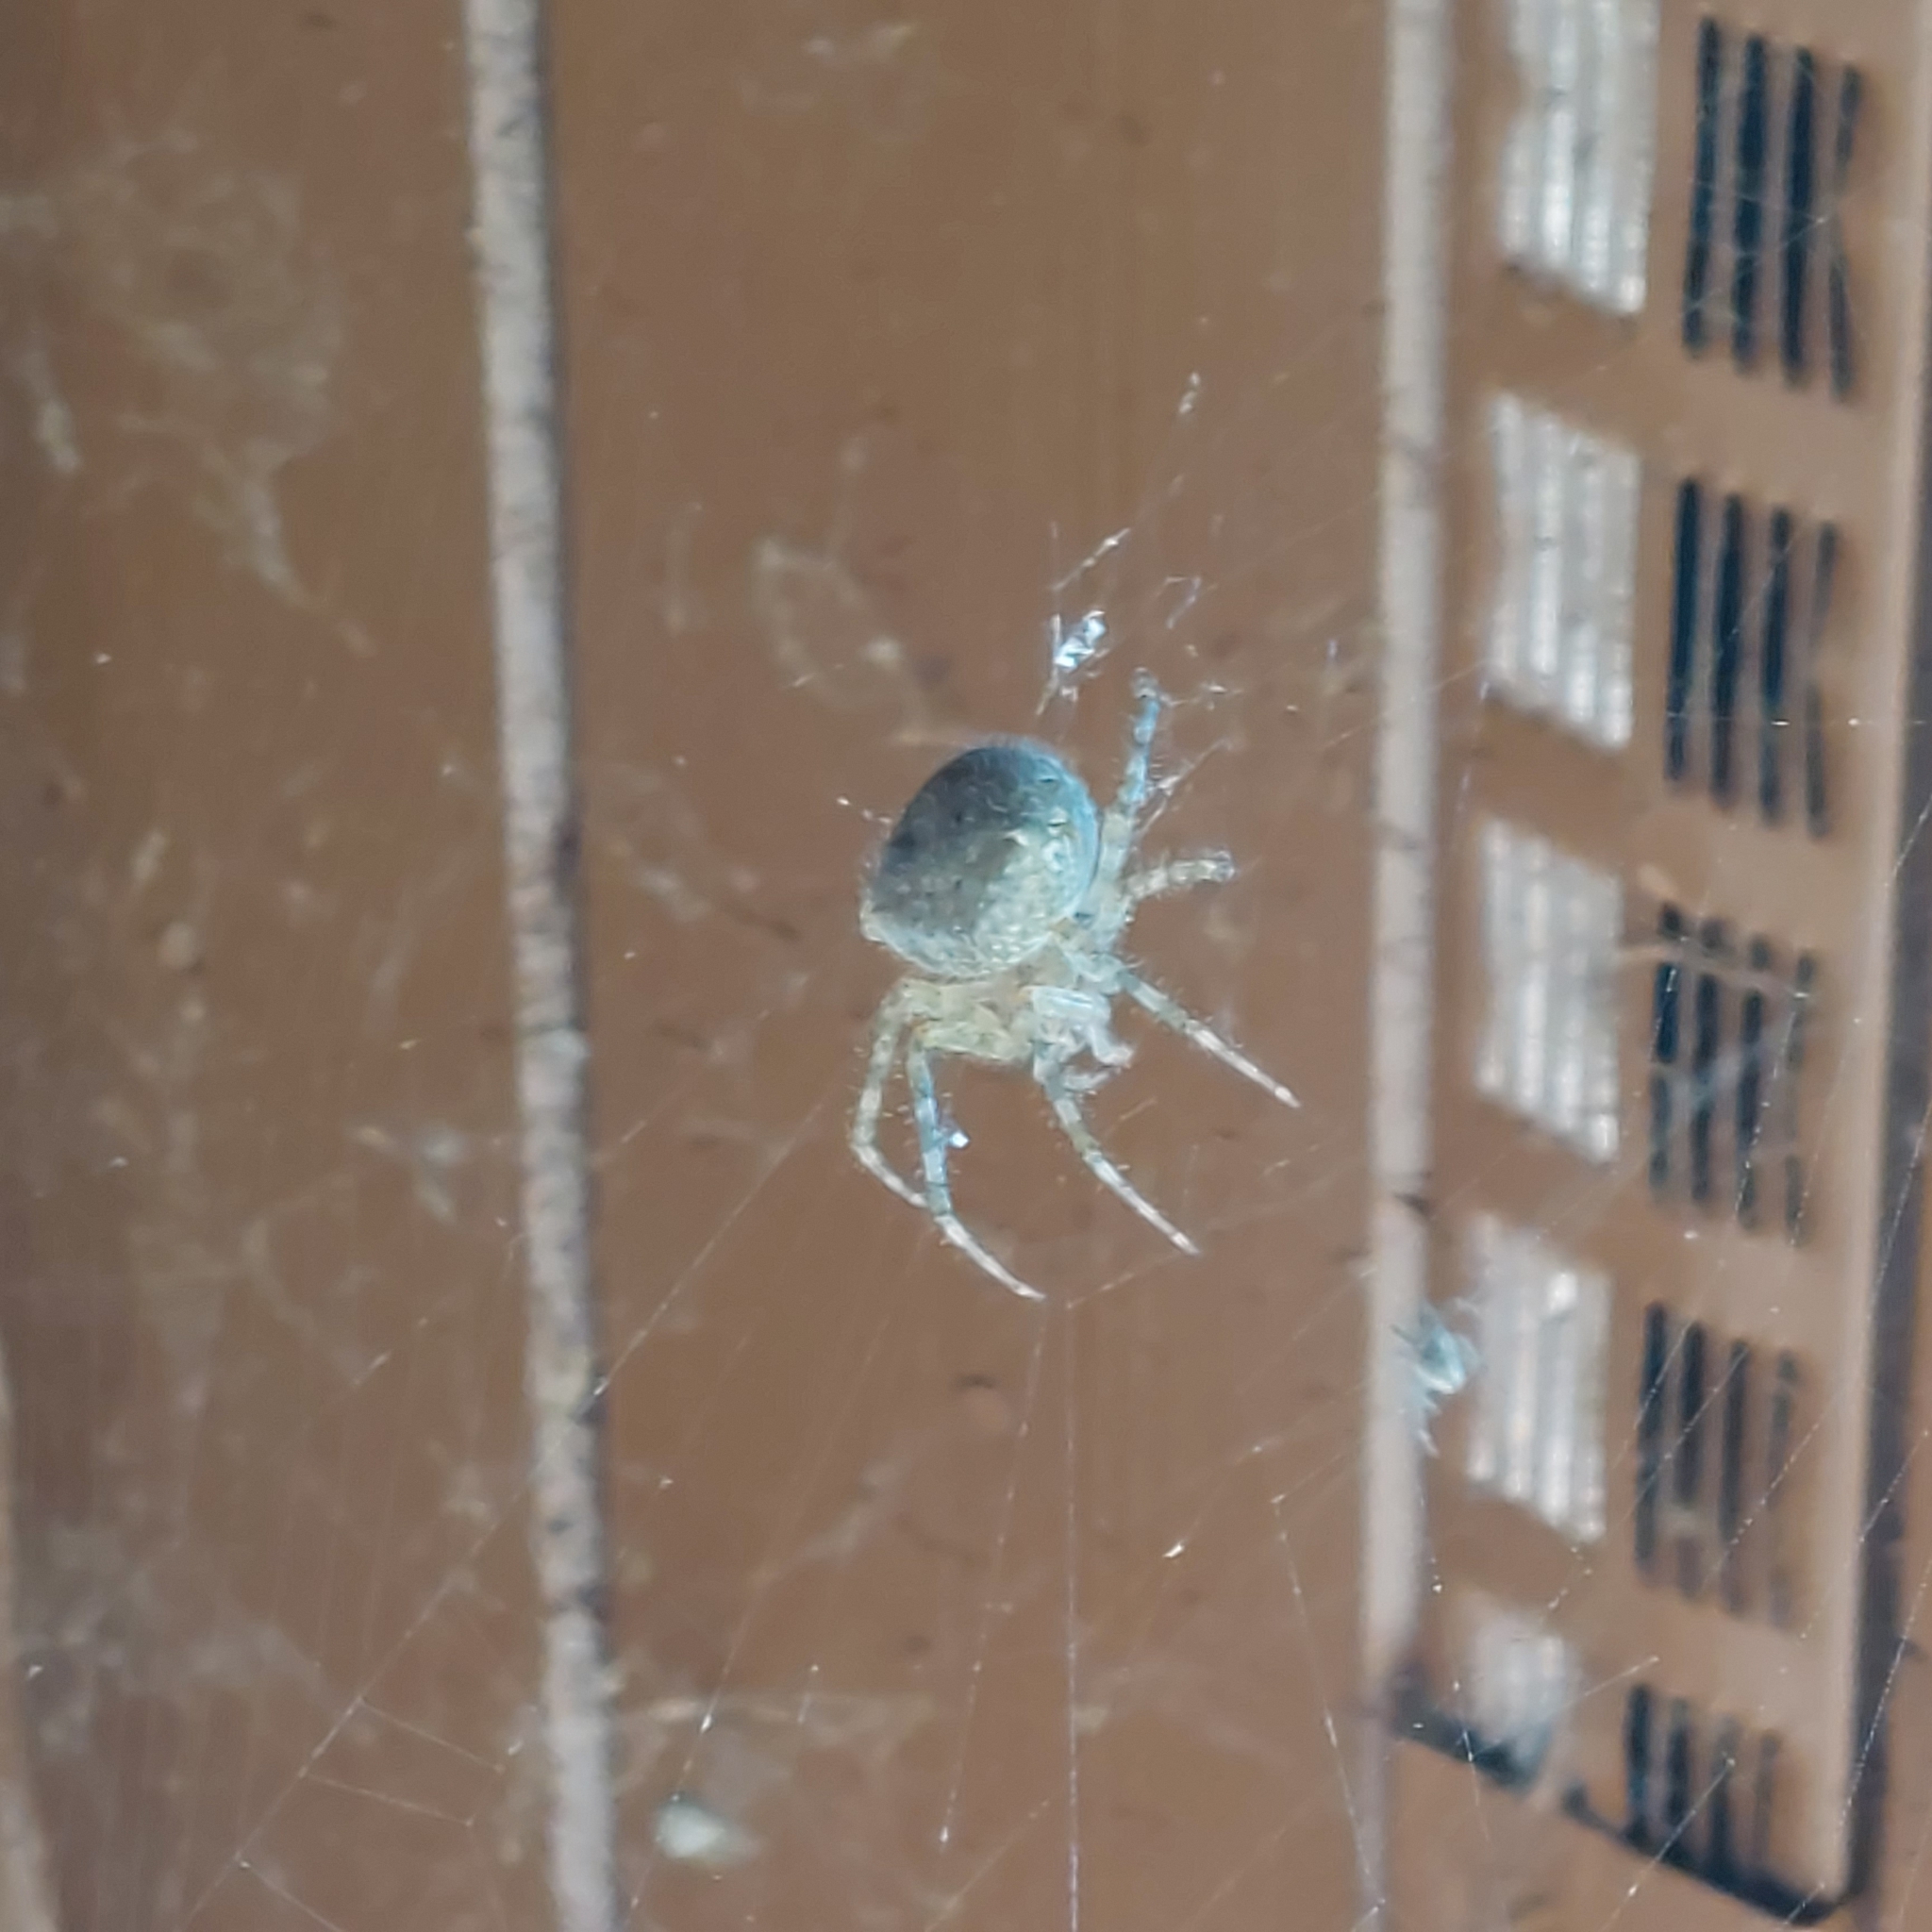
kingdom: Animalia
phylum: Arthropoda
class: Arachnida
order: Araneae
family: Araneidae
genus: Araneus
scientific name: Araneus cavaticus
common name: Barn orbweaver
